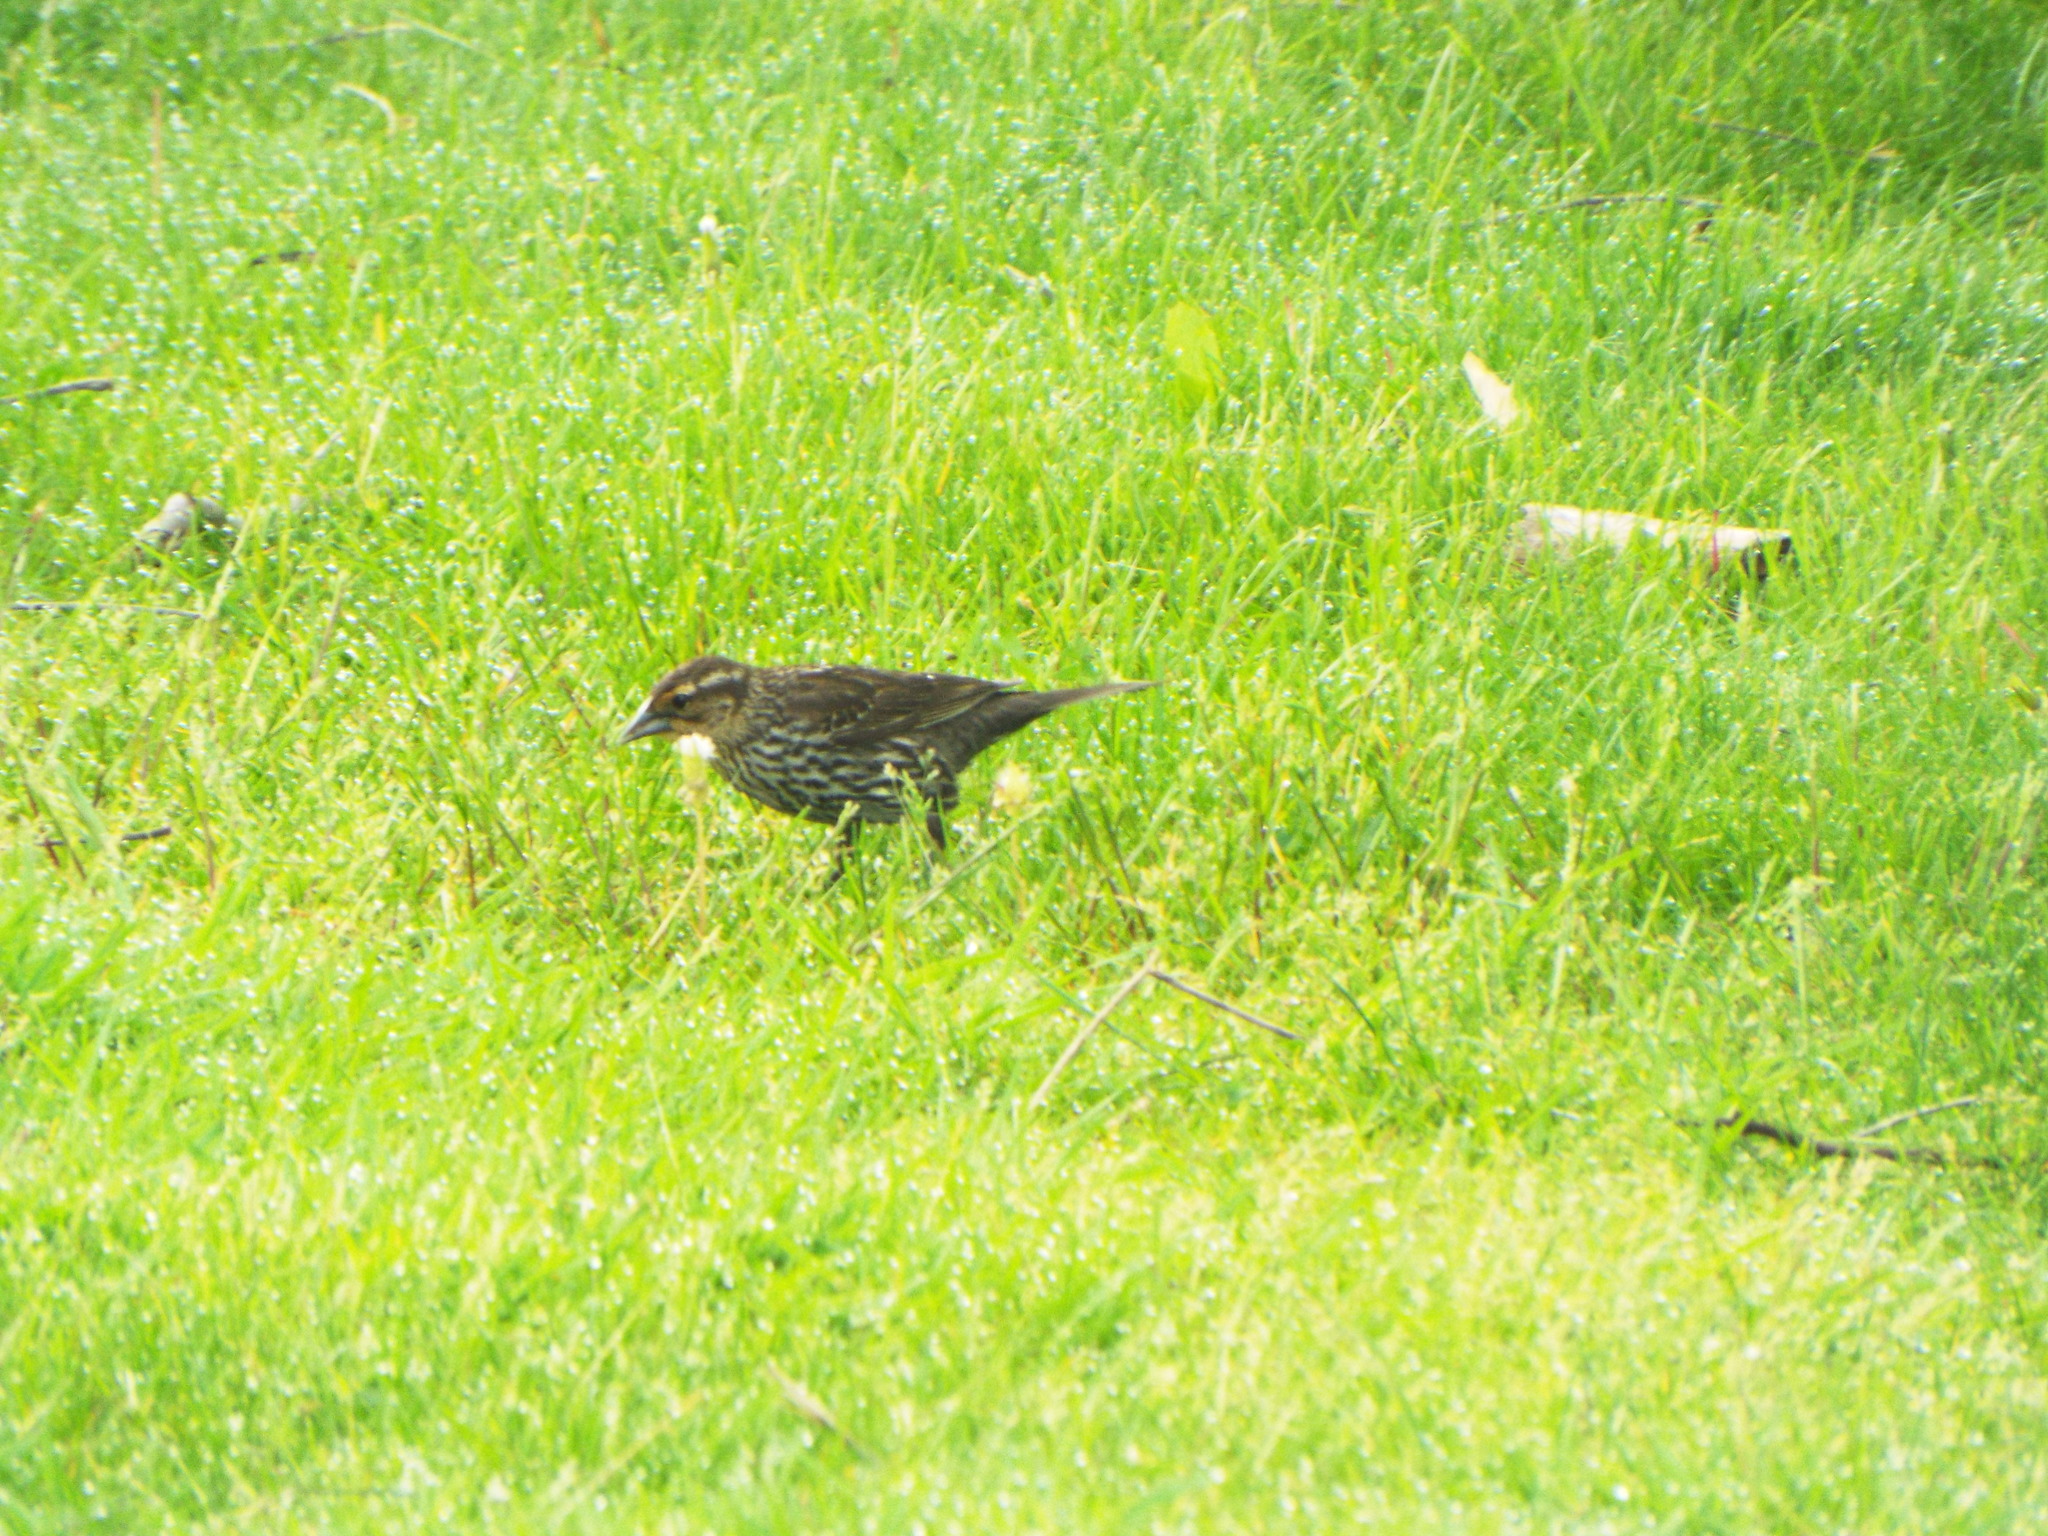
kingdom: Animalia
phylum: Chordata
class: Aves
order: Passeriformes
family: Icteridae
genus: Agelaius
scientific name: Agelaius phoeniceus
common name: Red-winged blackbird
